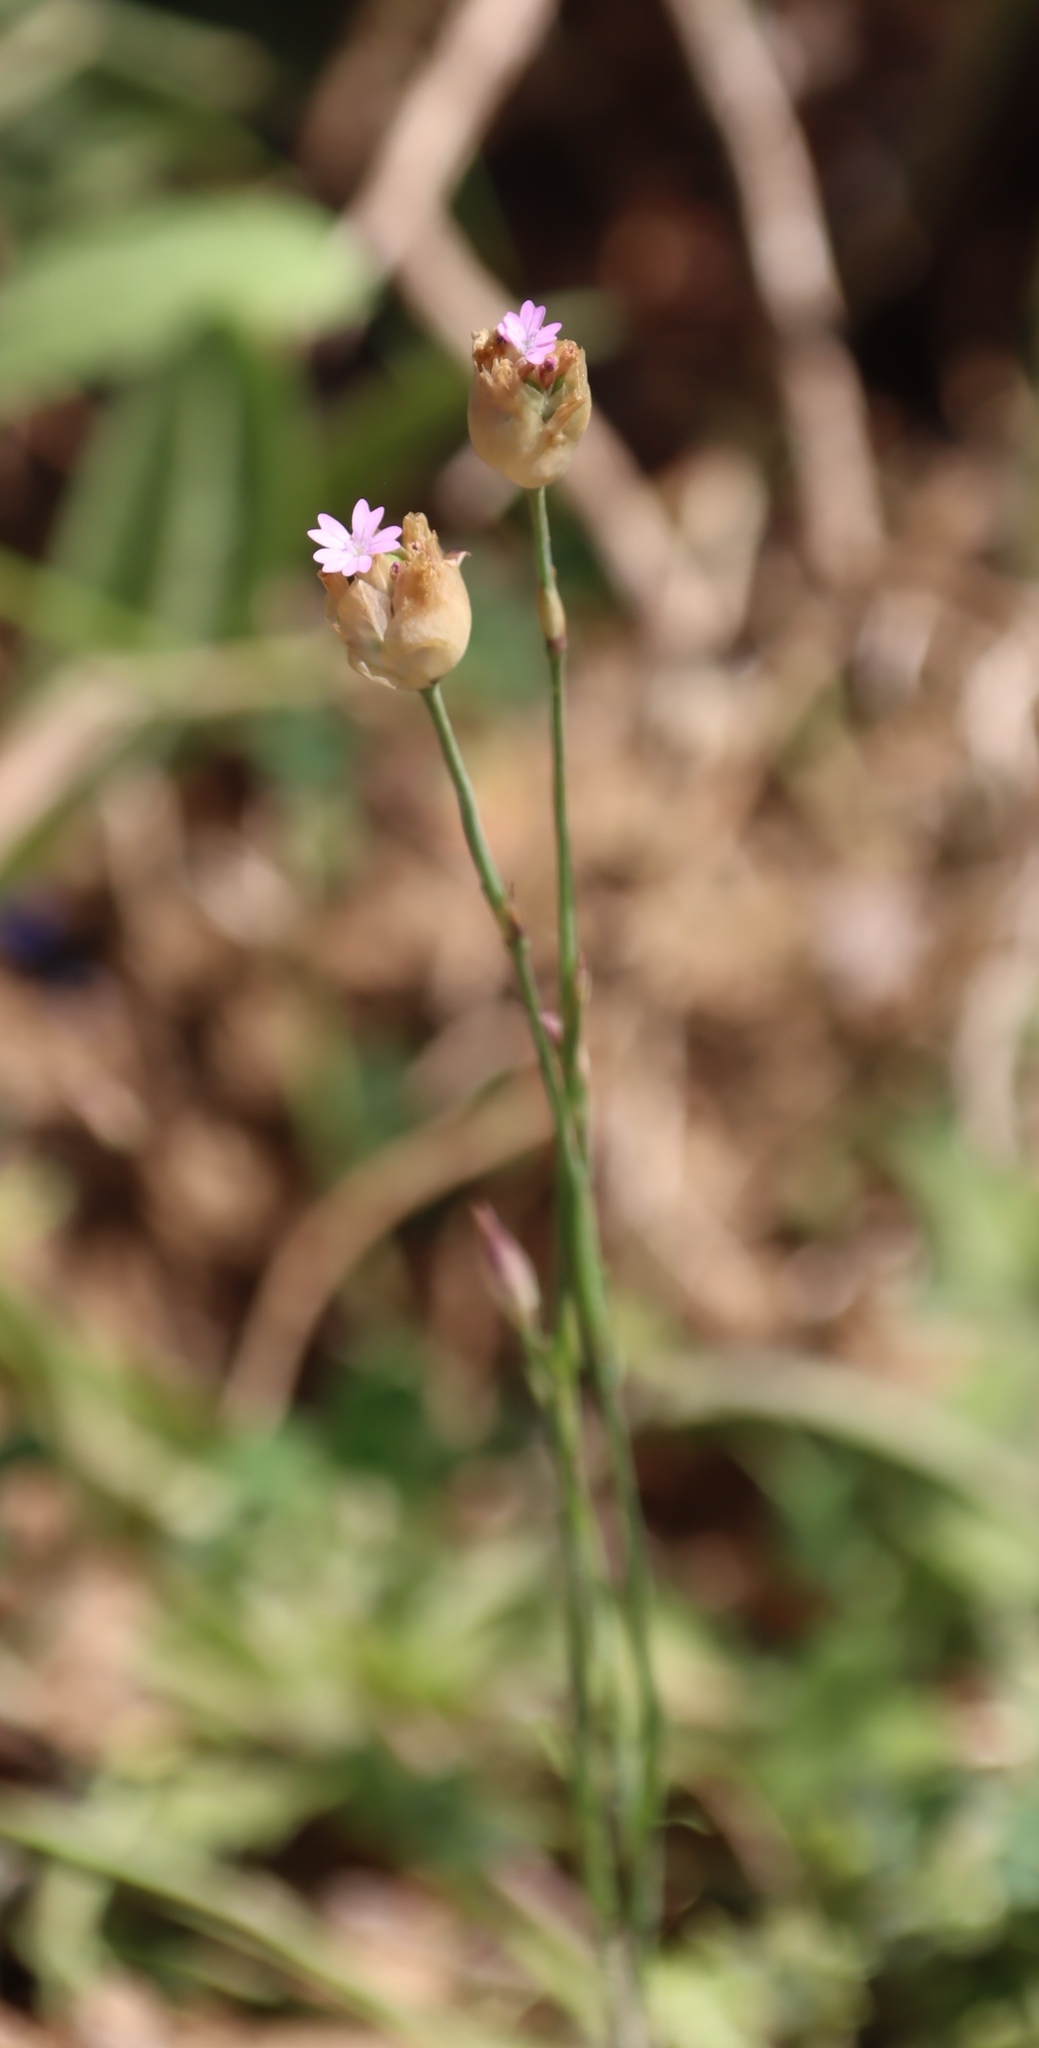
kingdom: Plantae
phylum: Tracheophyta
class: Magnoliopsida
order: Caryophyllales
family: Caryophyllaceae
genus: Petrorhagia
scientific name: Petrorhagia prolifera
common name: Proliferous pink
